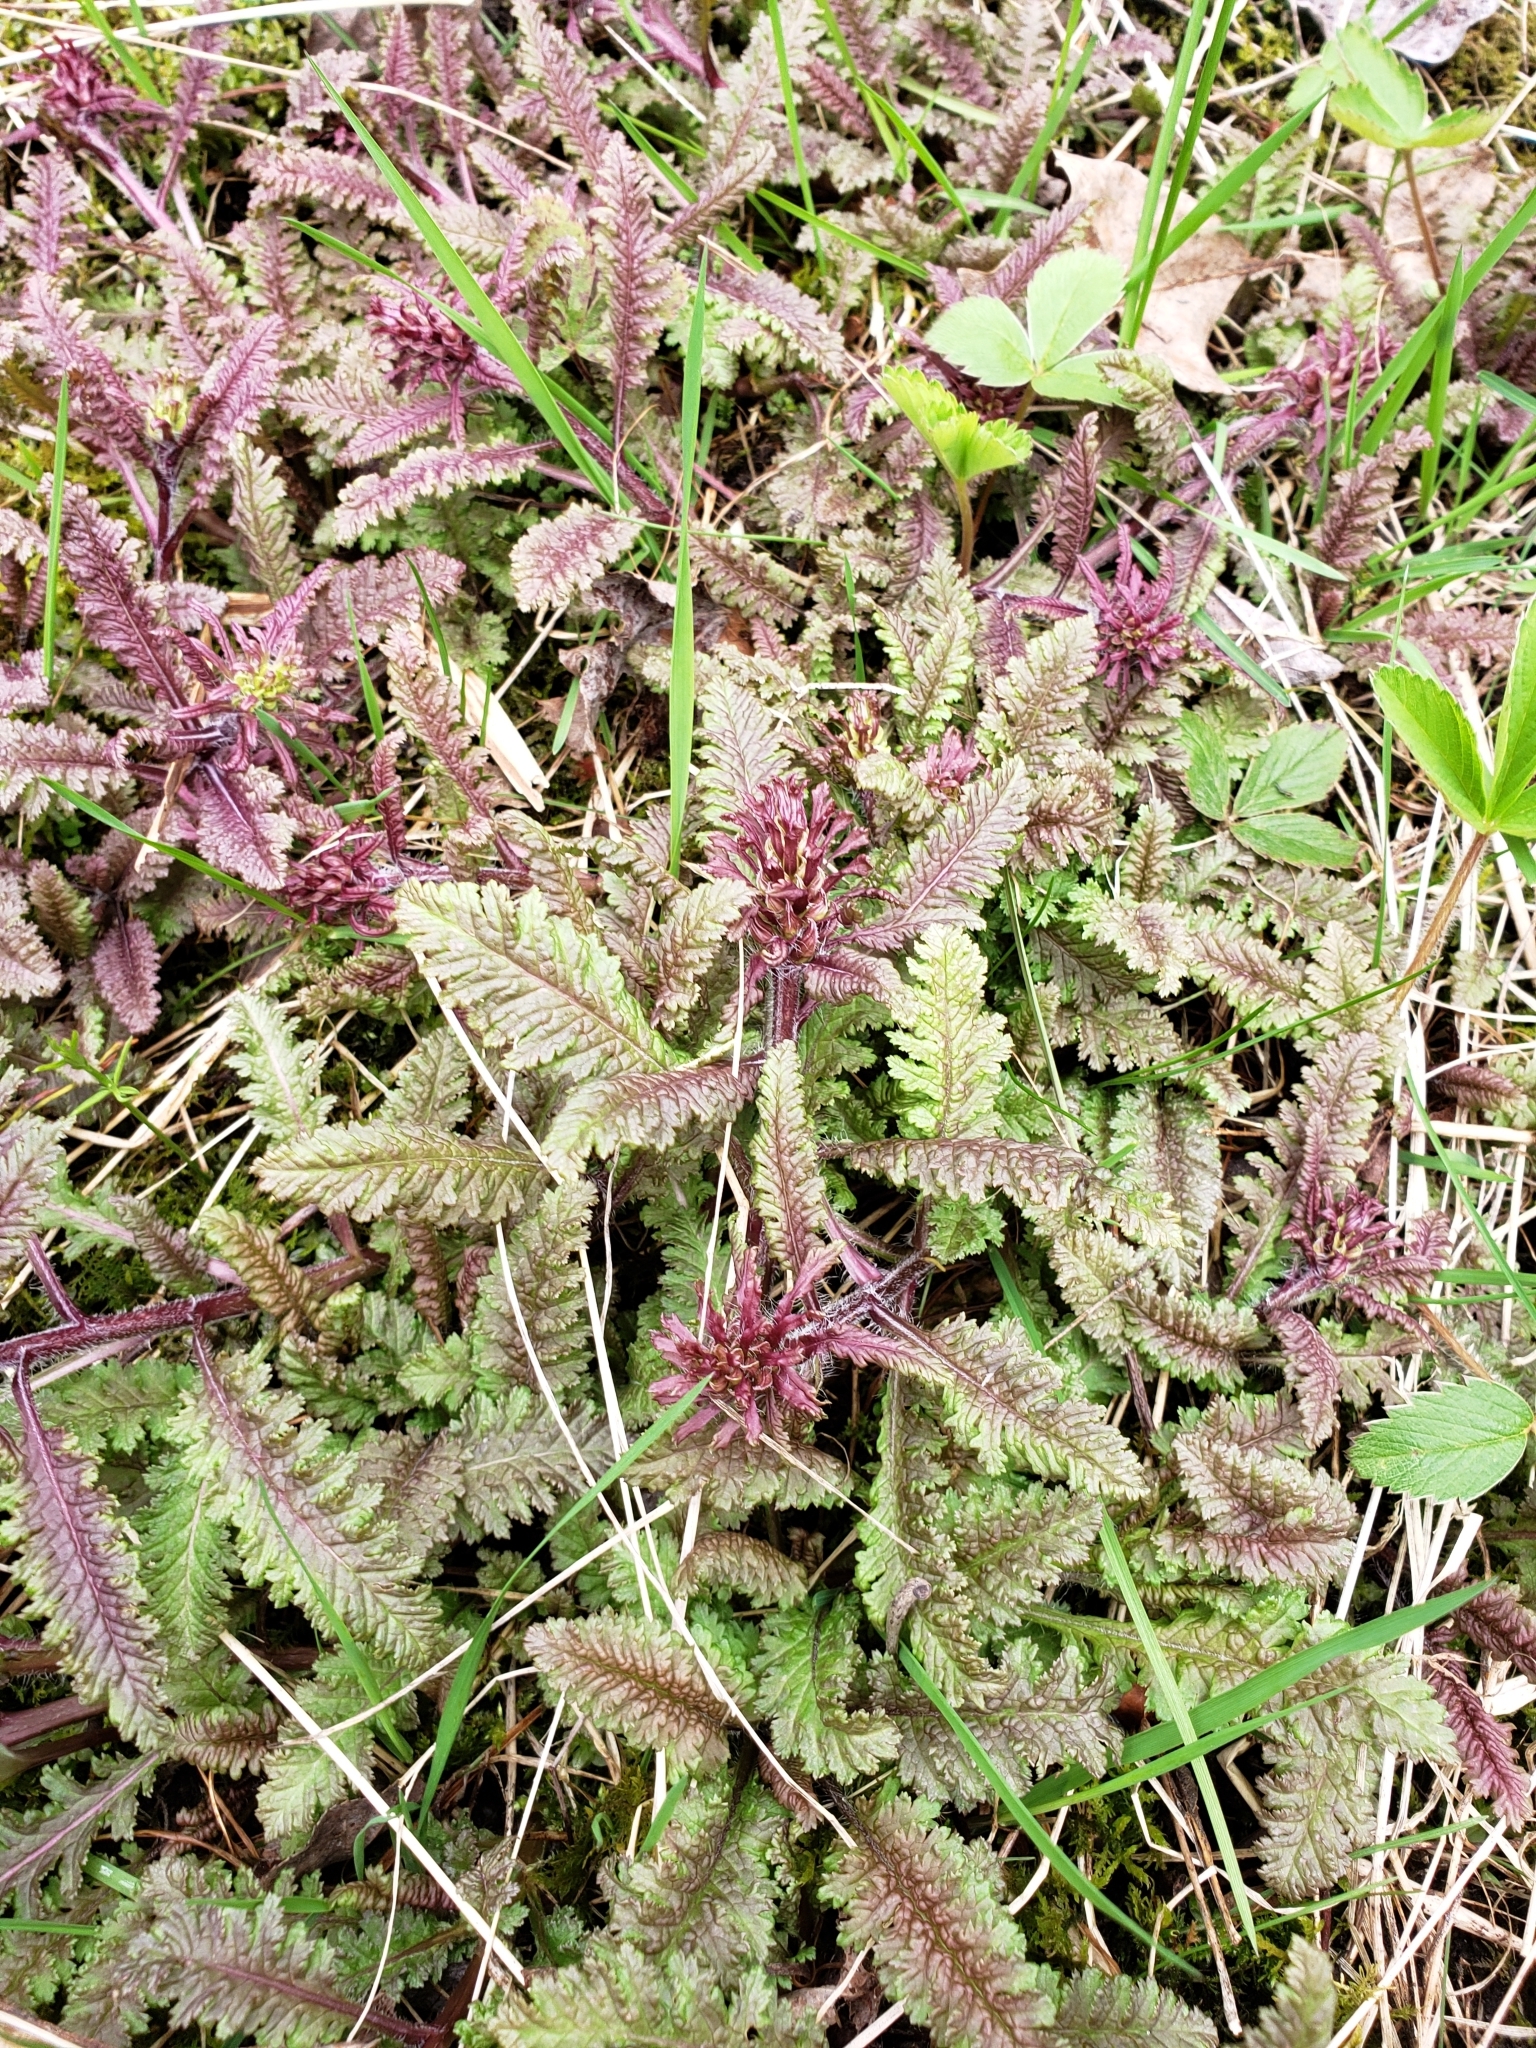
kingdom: Plantae
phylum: Tracheophyta
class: Magnoliopsida
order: Lamiales
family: Orobanchaceae
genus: Pedicularis
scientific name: Pedicularis canadensis
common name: Early lousewort
